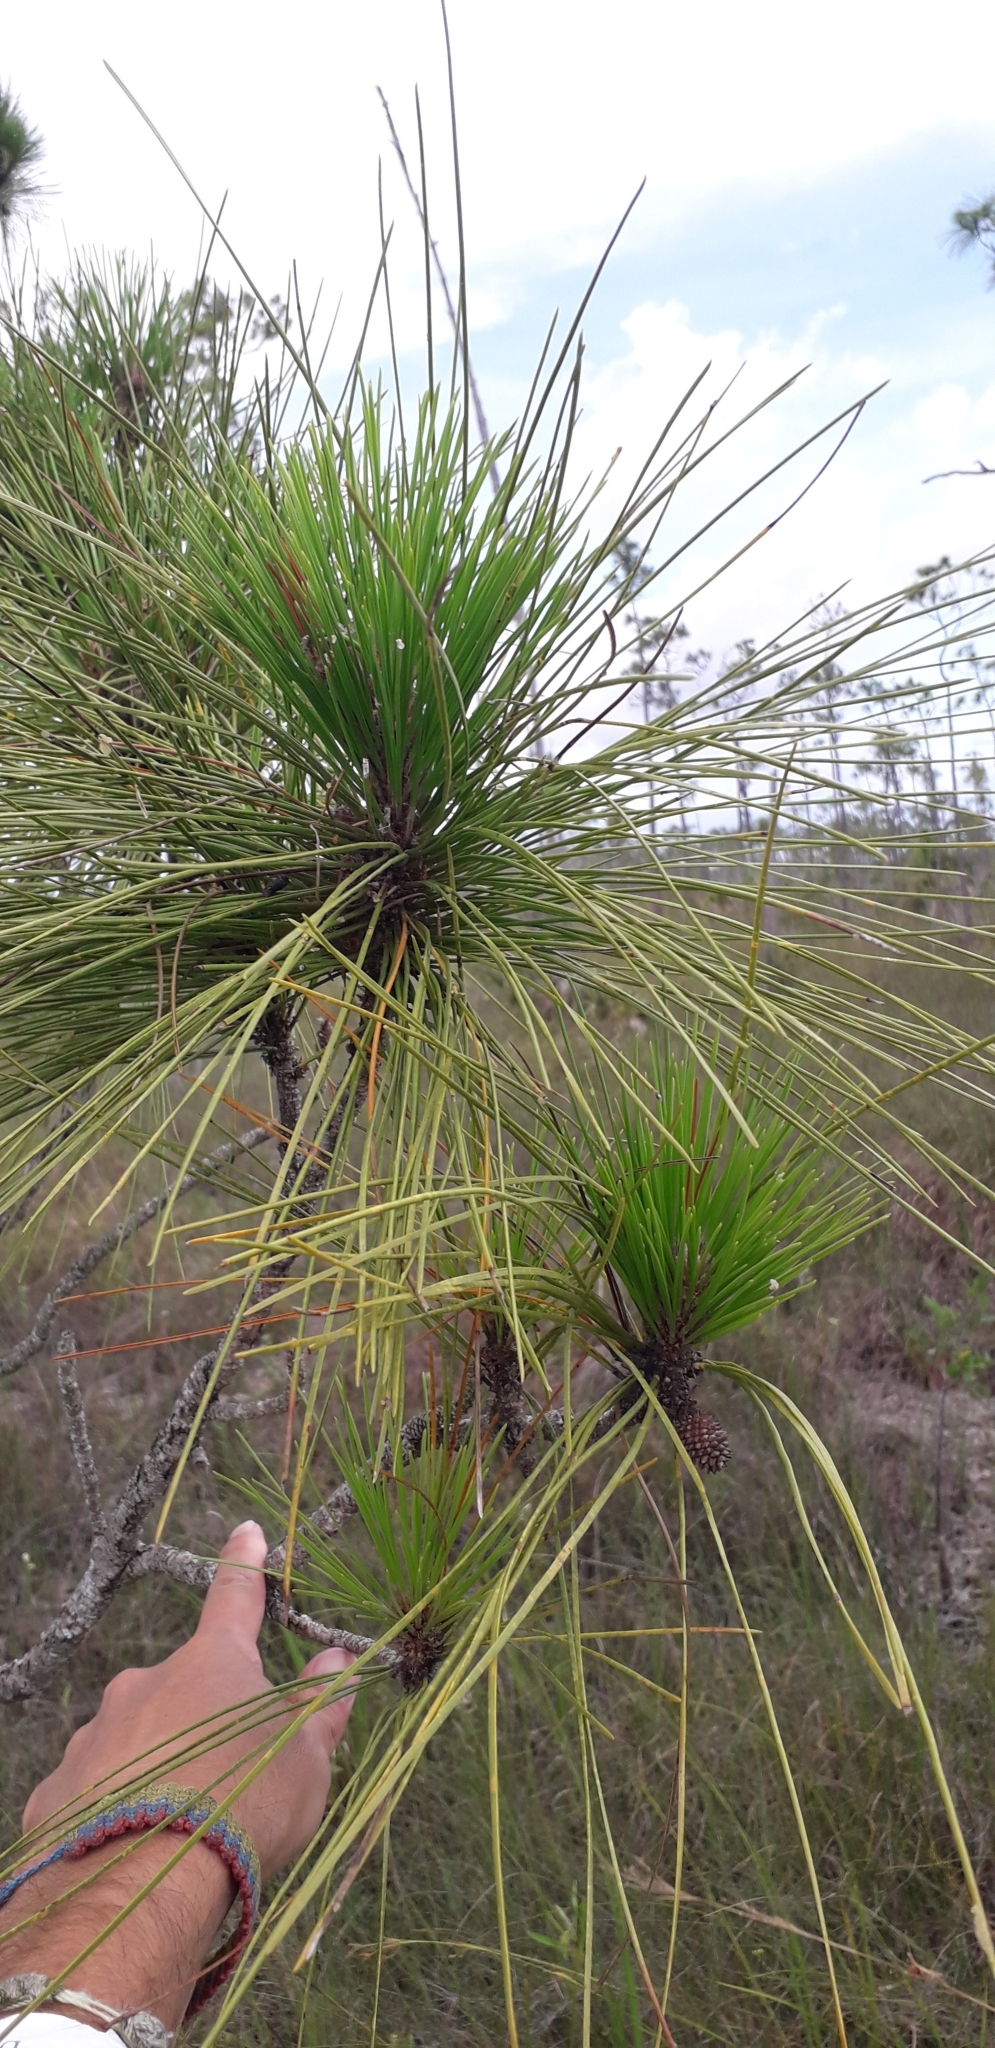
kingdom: Plantae
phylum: Tracheophyta
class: Pinopsida
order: Pinales
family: Pinaceae
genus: Pinus
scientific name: Pinus elliottii
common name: Slash pine
